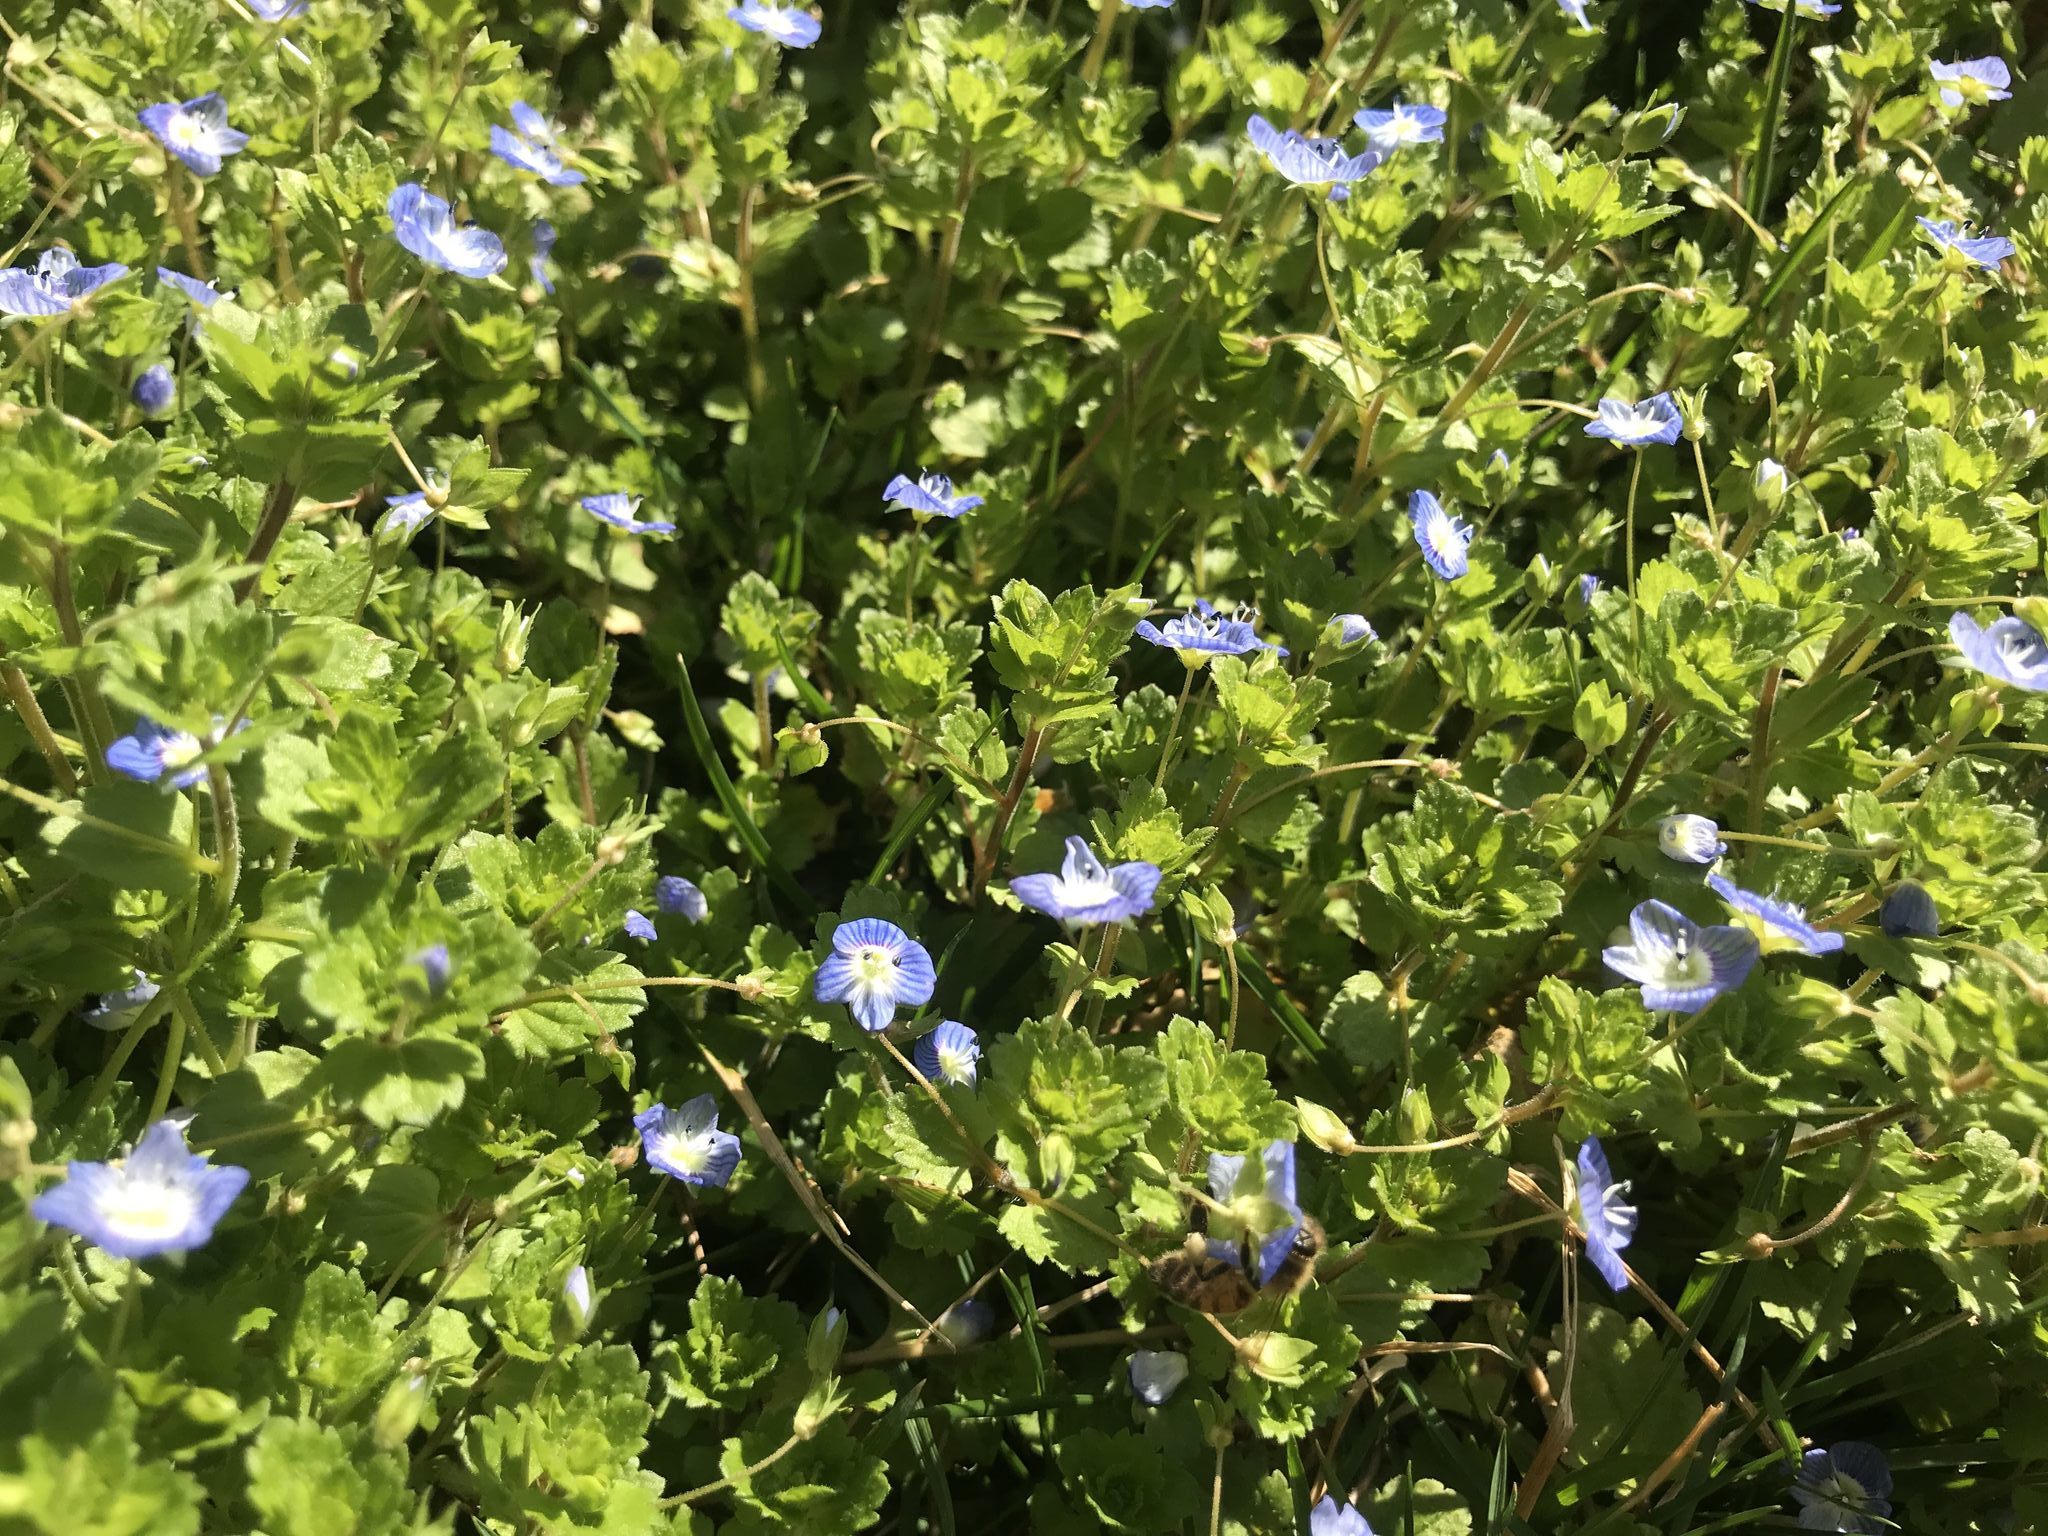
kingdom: Plantae
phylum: Tracheophyta
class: Magnoliopsida
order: Lamiales
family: Plantaginaceae
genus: Veronica
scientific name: Veronica persica
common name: Common field-speedwell
